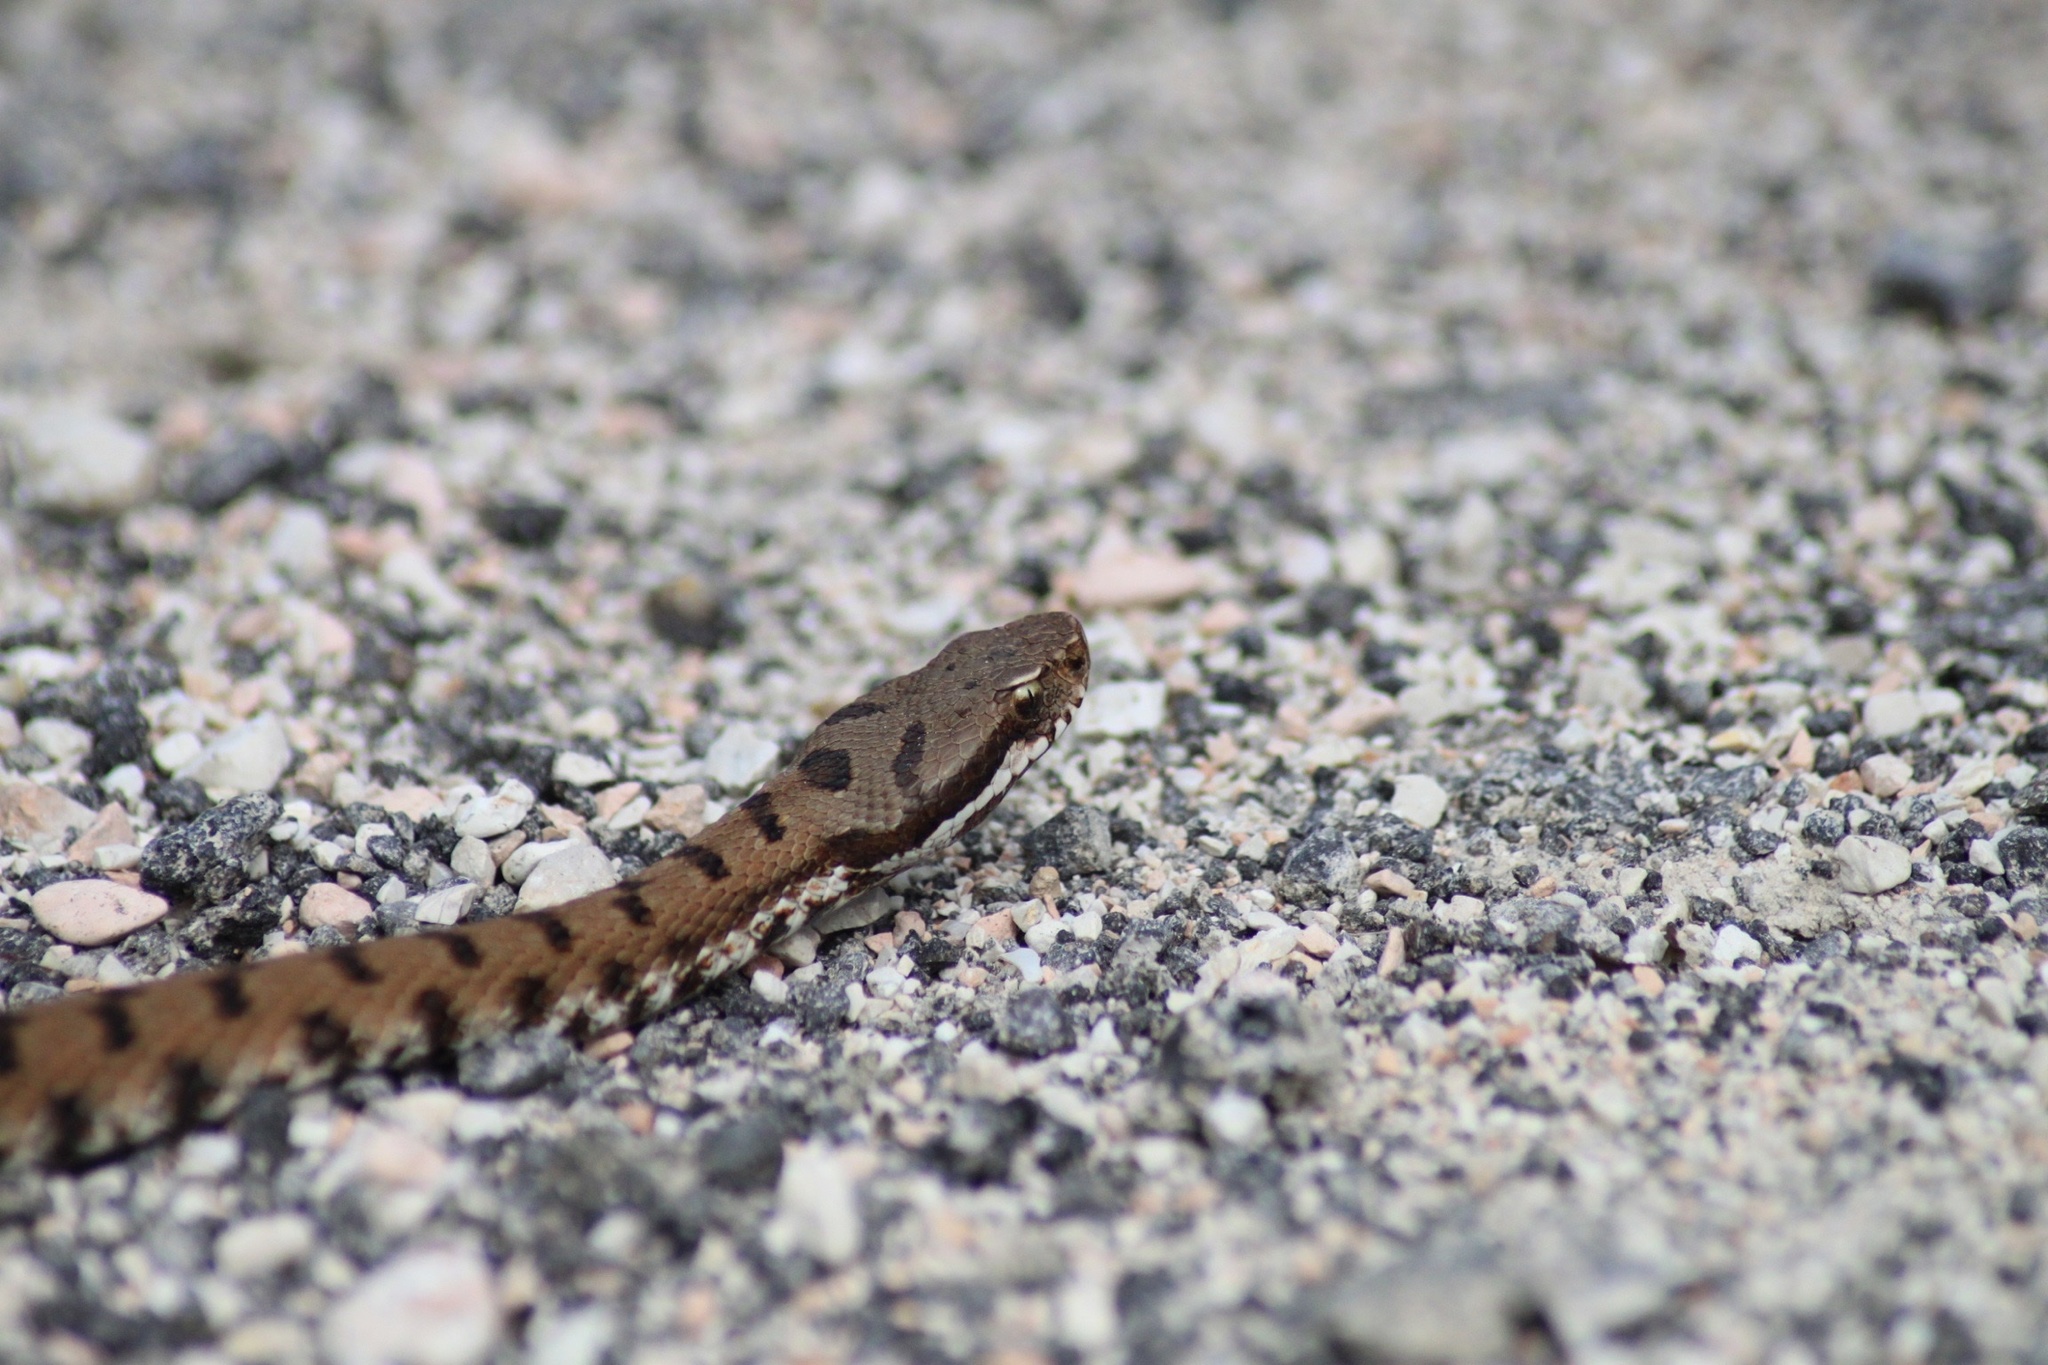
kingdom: Animalia
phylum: Chordata
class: Squamata
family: Viperidae
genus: Vipera
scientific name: Vipera aspis
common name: Asp viper
